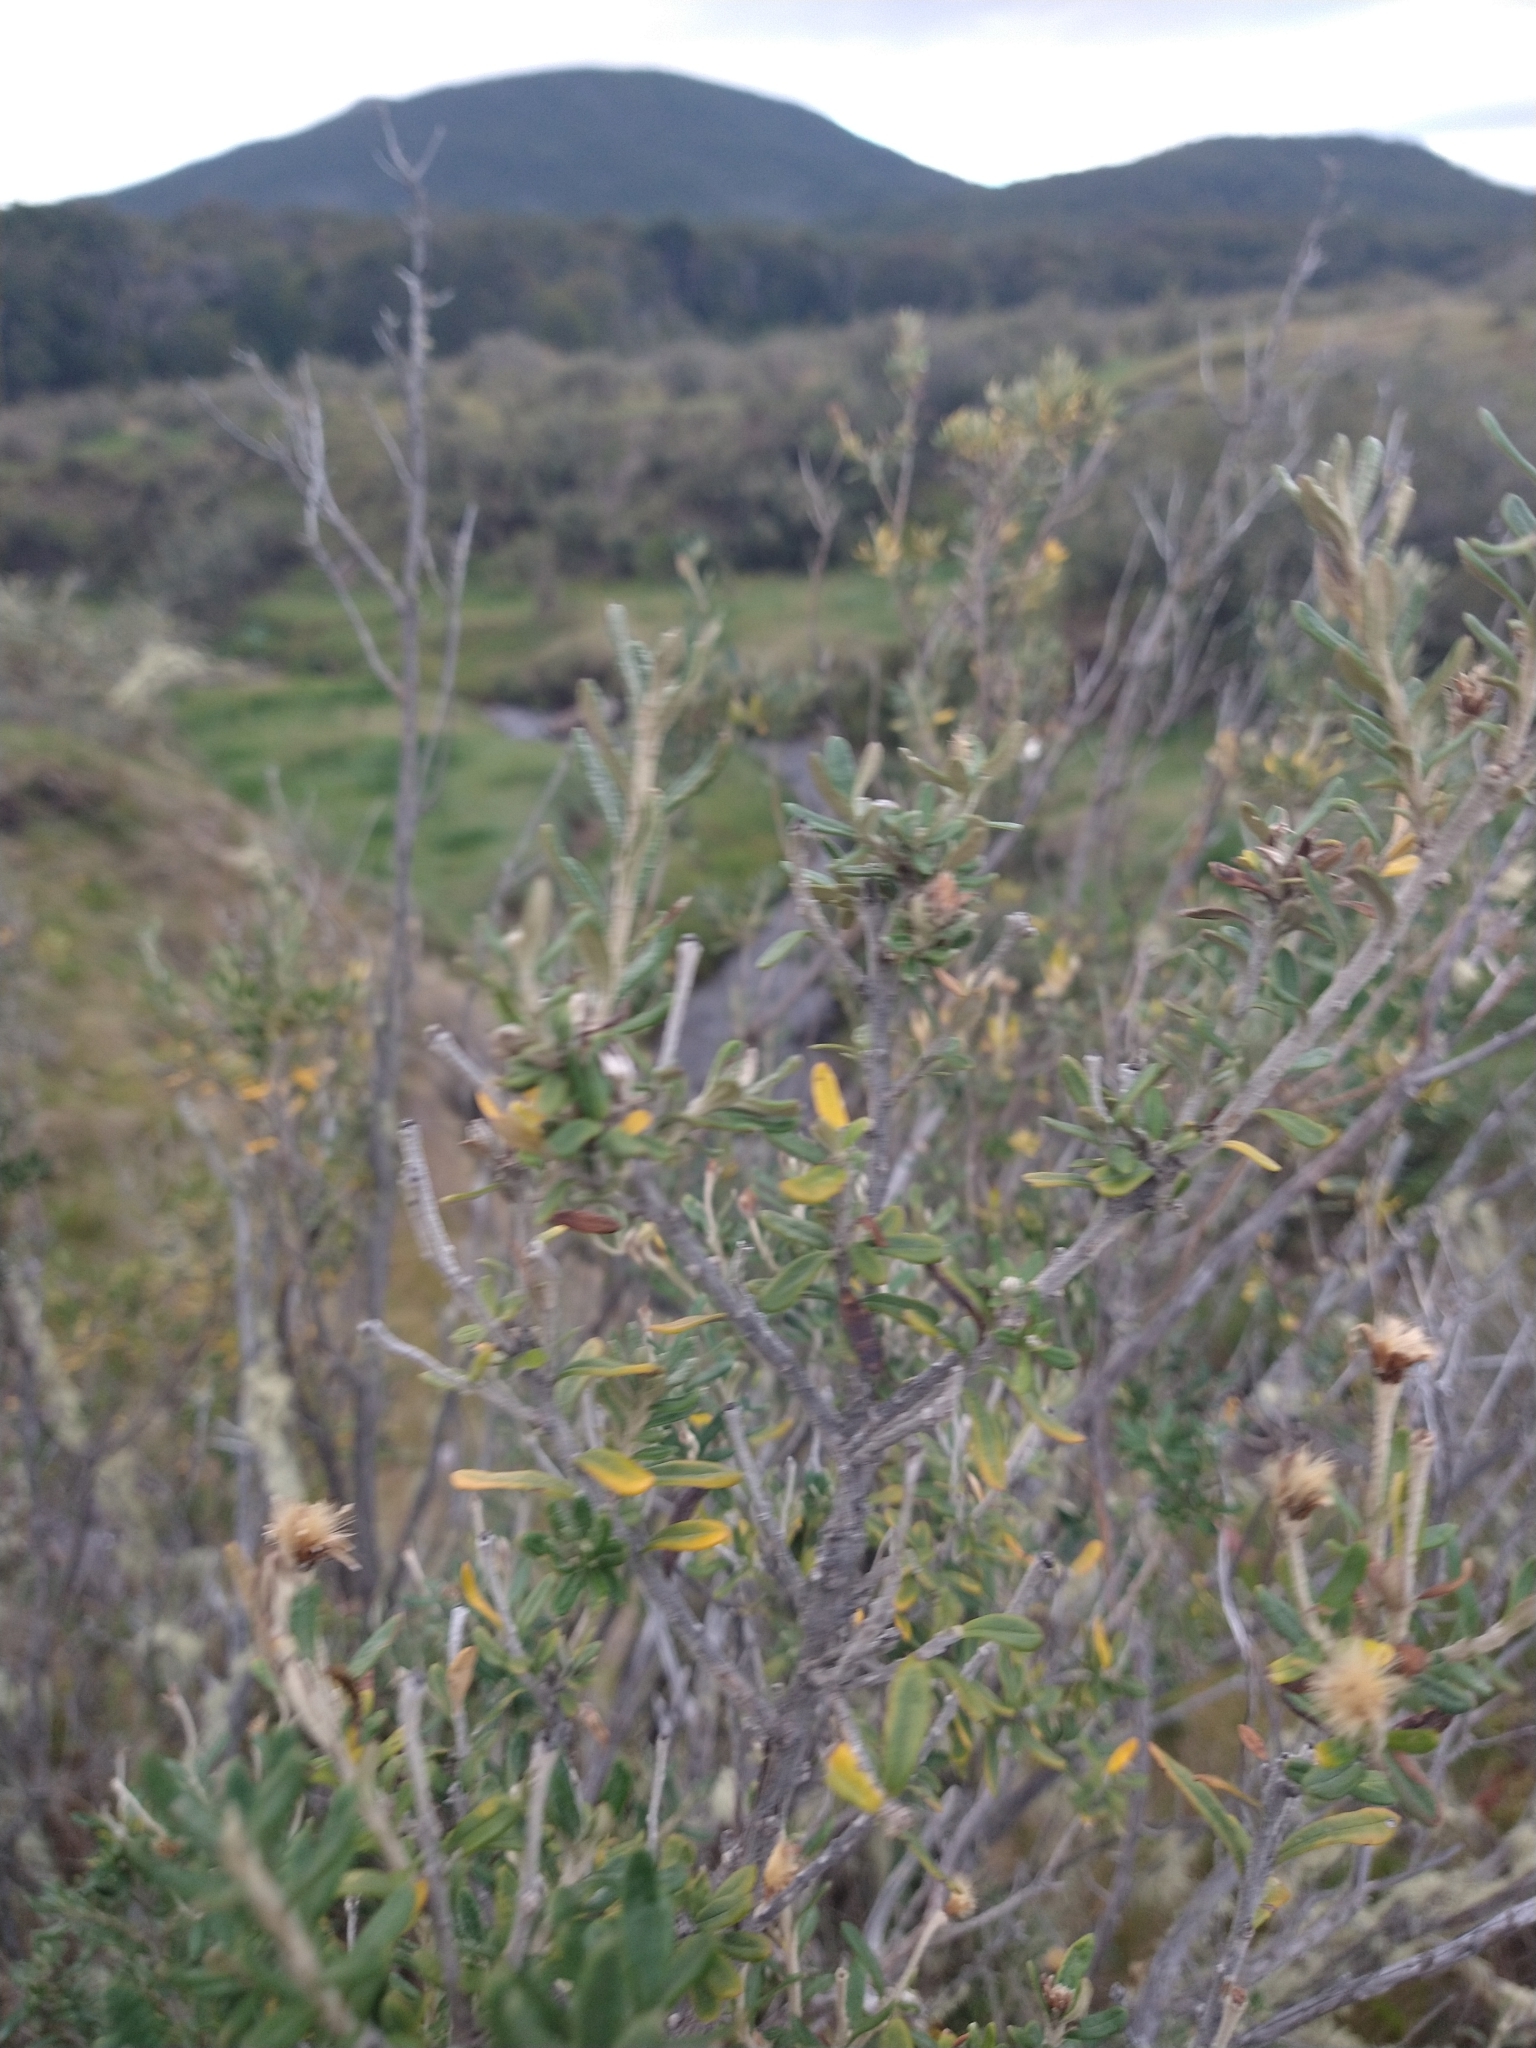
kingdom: Plantae
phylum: Tracheophyta
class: Magnoliopsida
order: Asterales
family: Asteraceae
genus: Chiliotrichum
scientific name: Chiliotrichum diffusum
